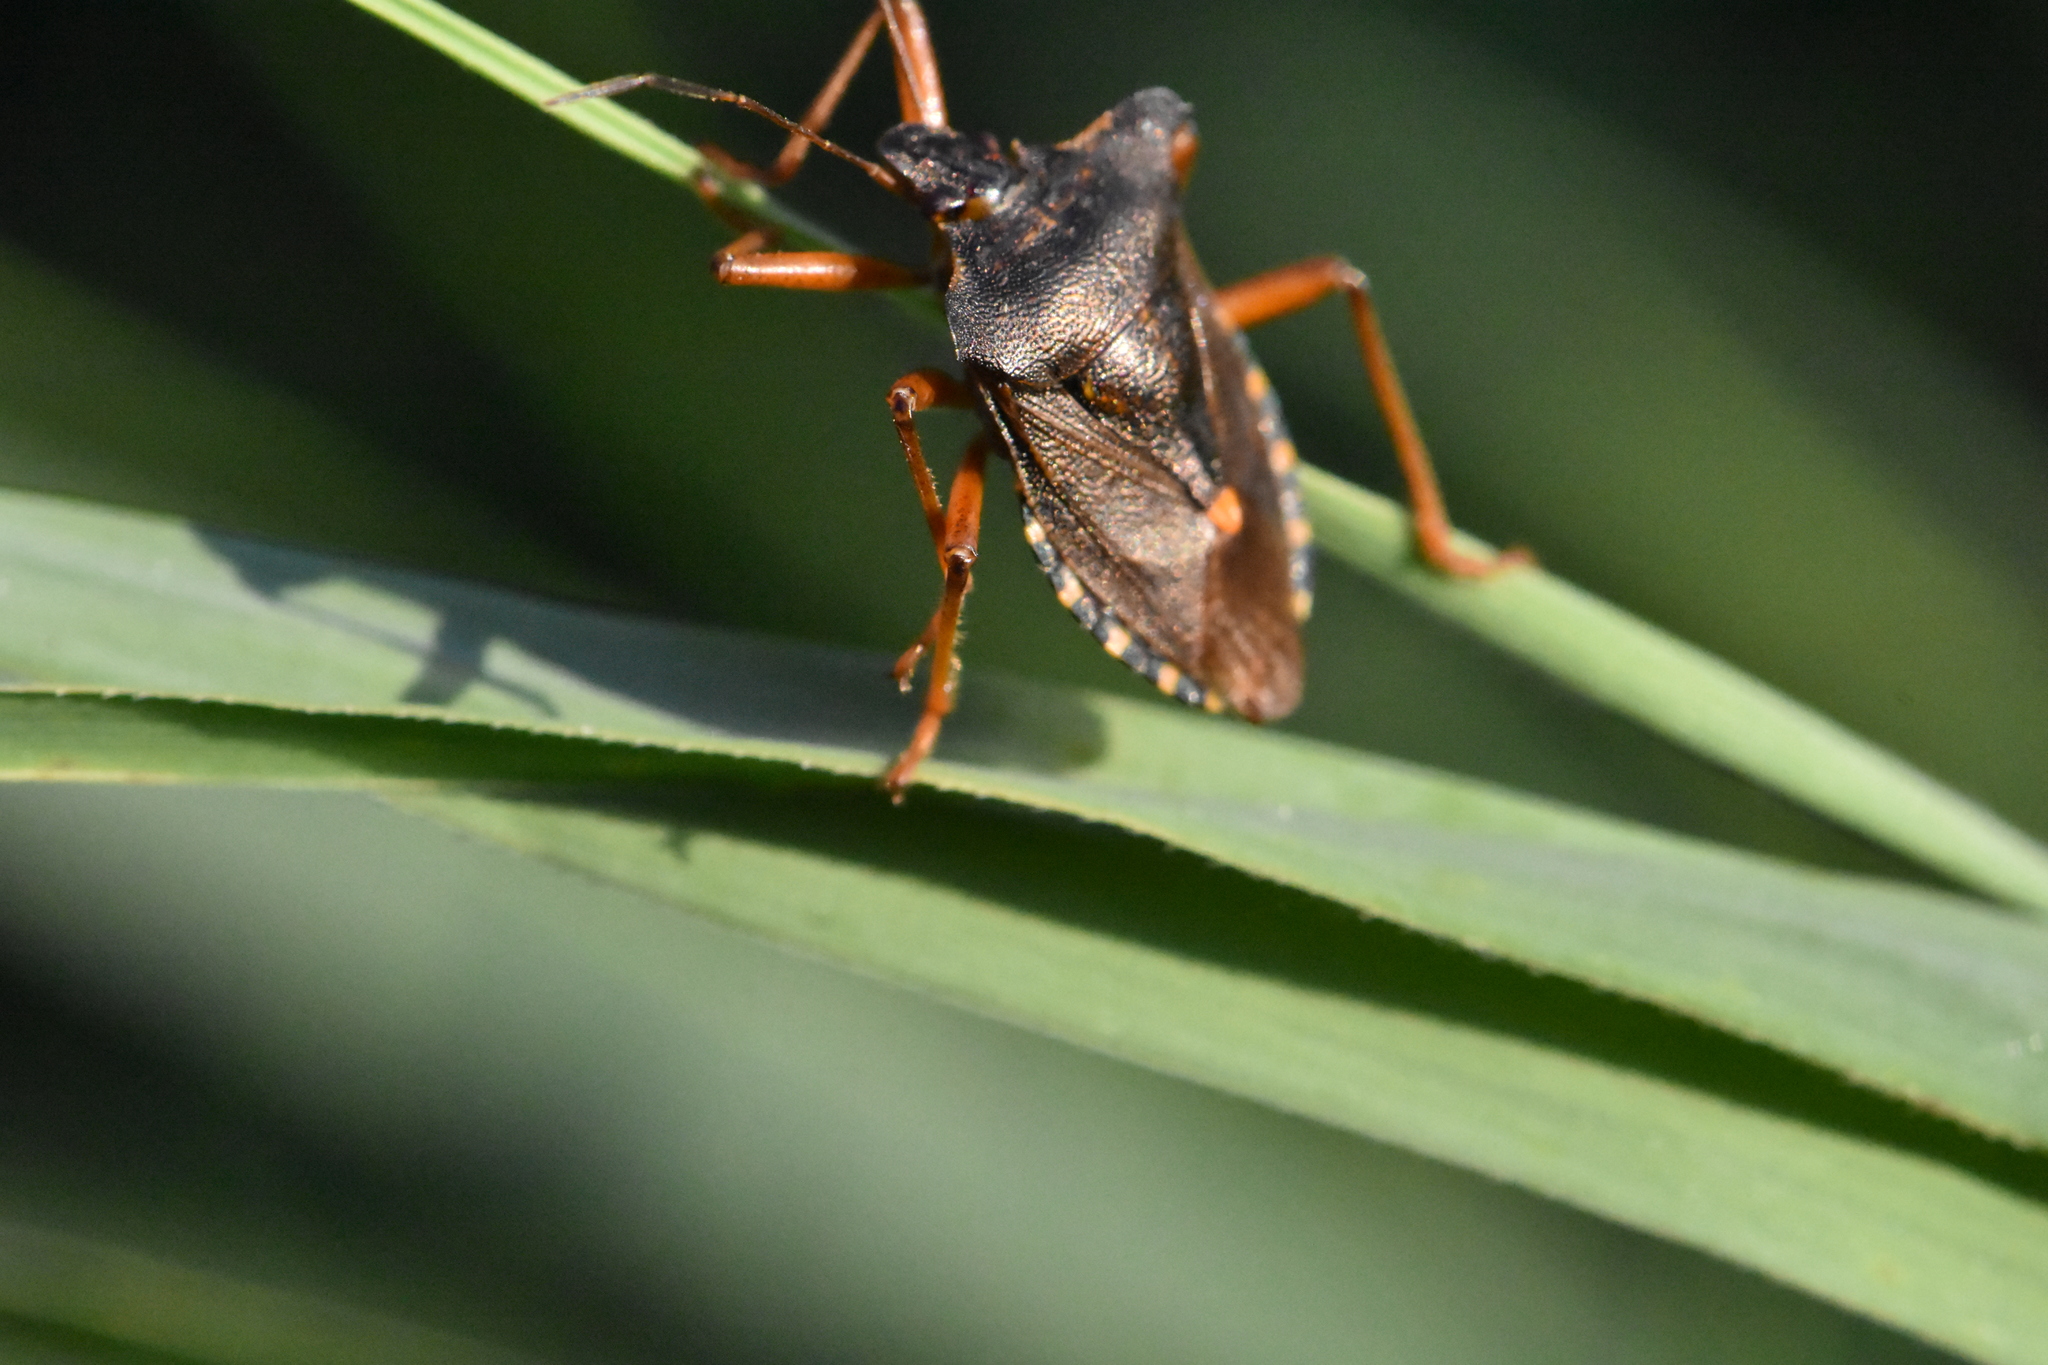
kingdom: Animalia
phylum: Arthropoda
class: Insecta
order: Hemiptera
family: Pentatomidae
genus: Pentatoma
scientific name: Pentatoma rufipes
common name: Forest bug
